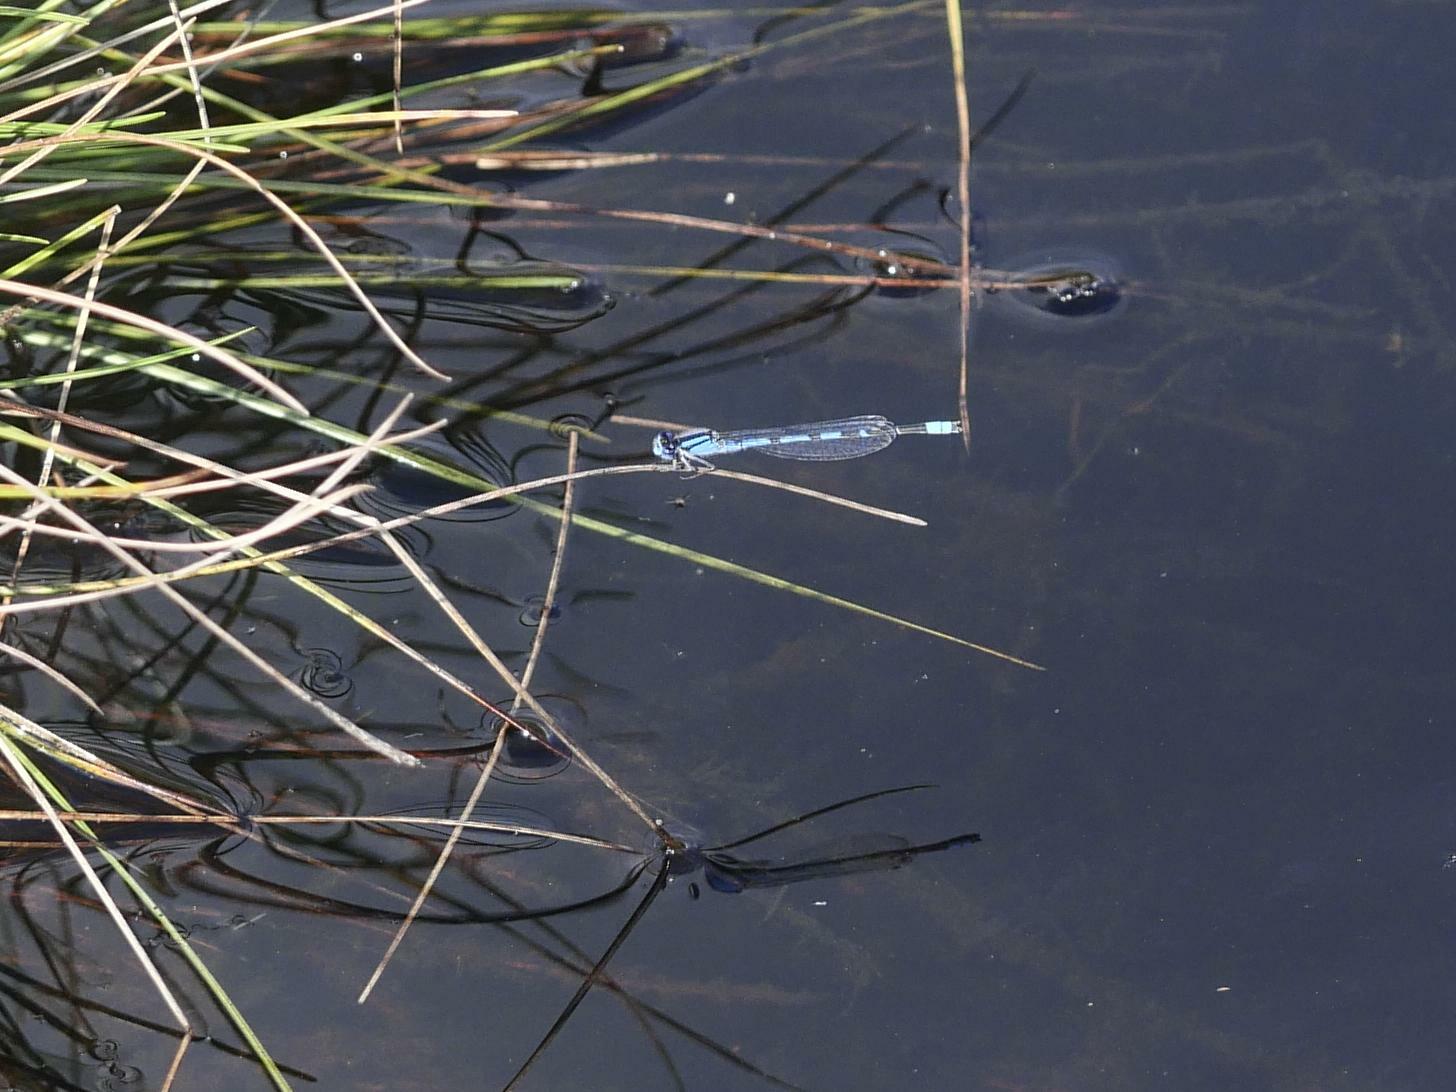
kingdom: Animalia
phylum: Arthropoda
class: Insecta
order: Odonata
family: Coenagrionidae
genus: Enallagma
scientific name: Enallagma civile
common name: Damselfly
